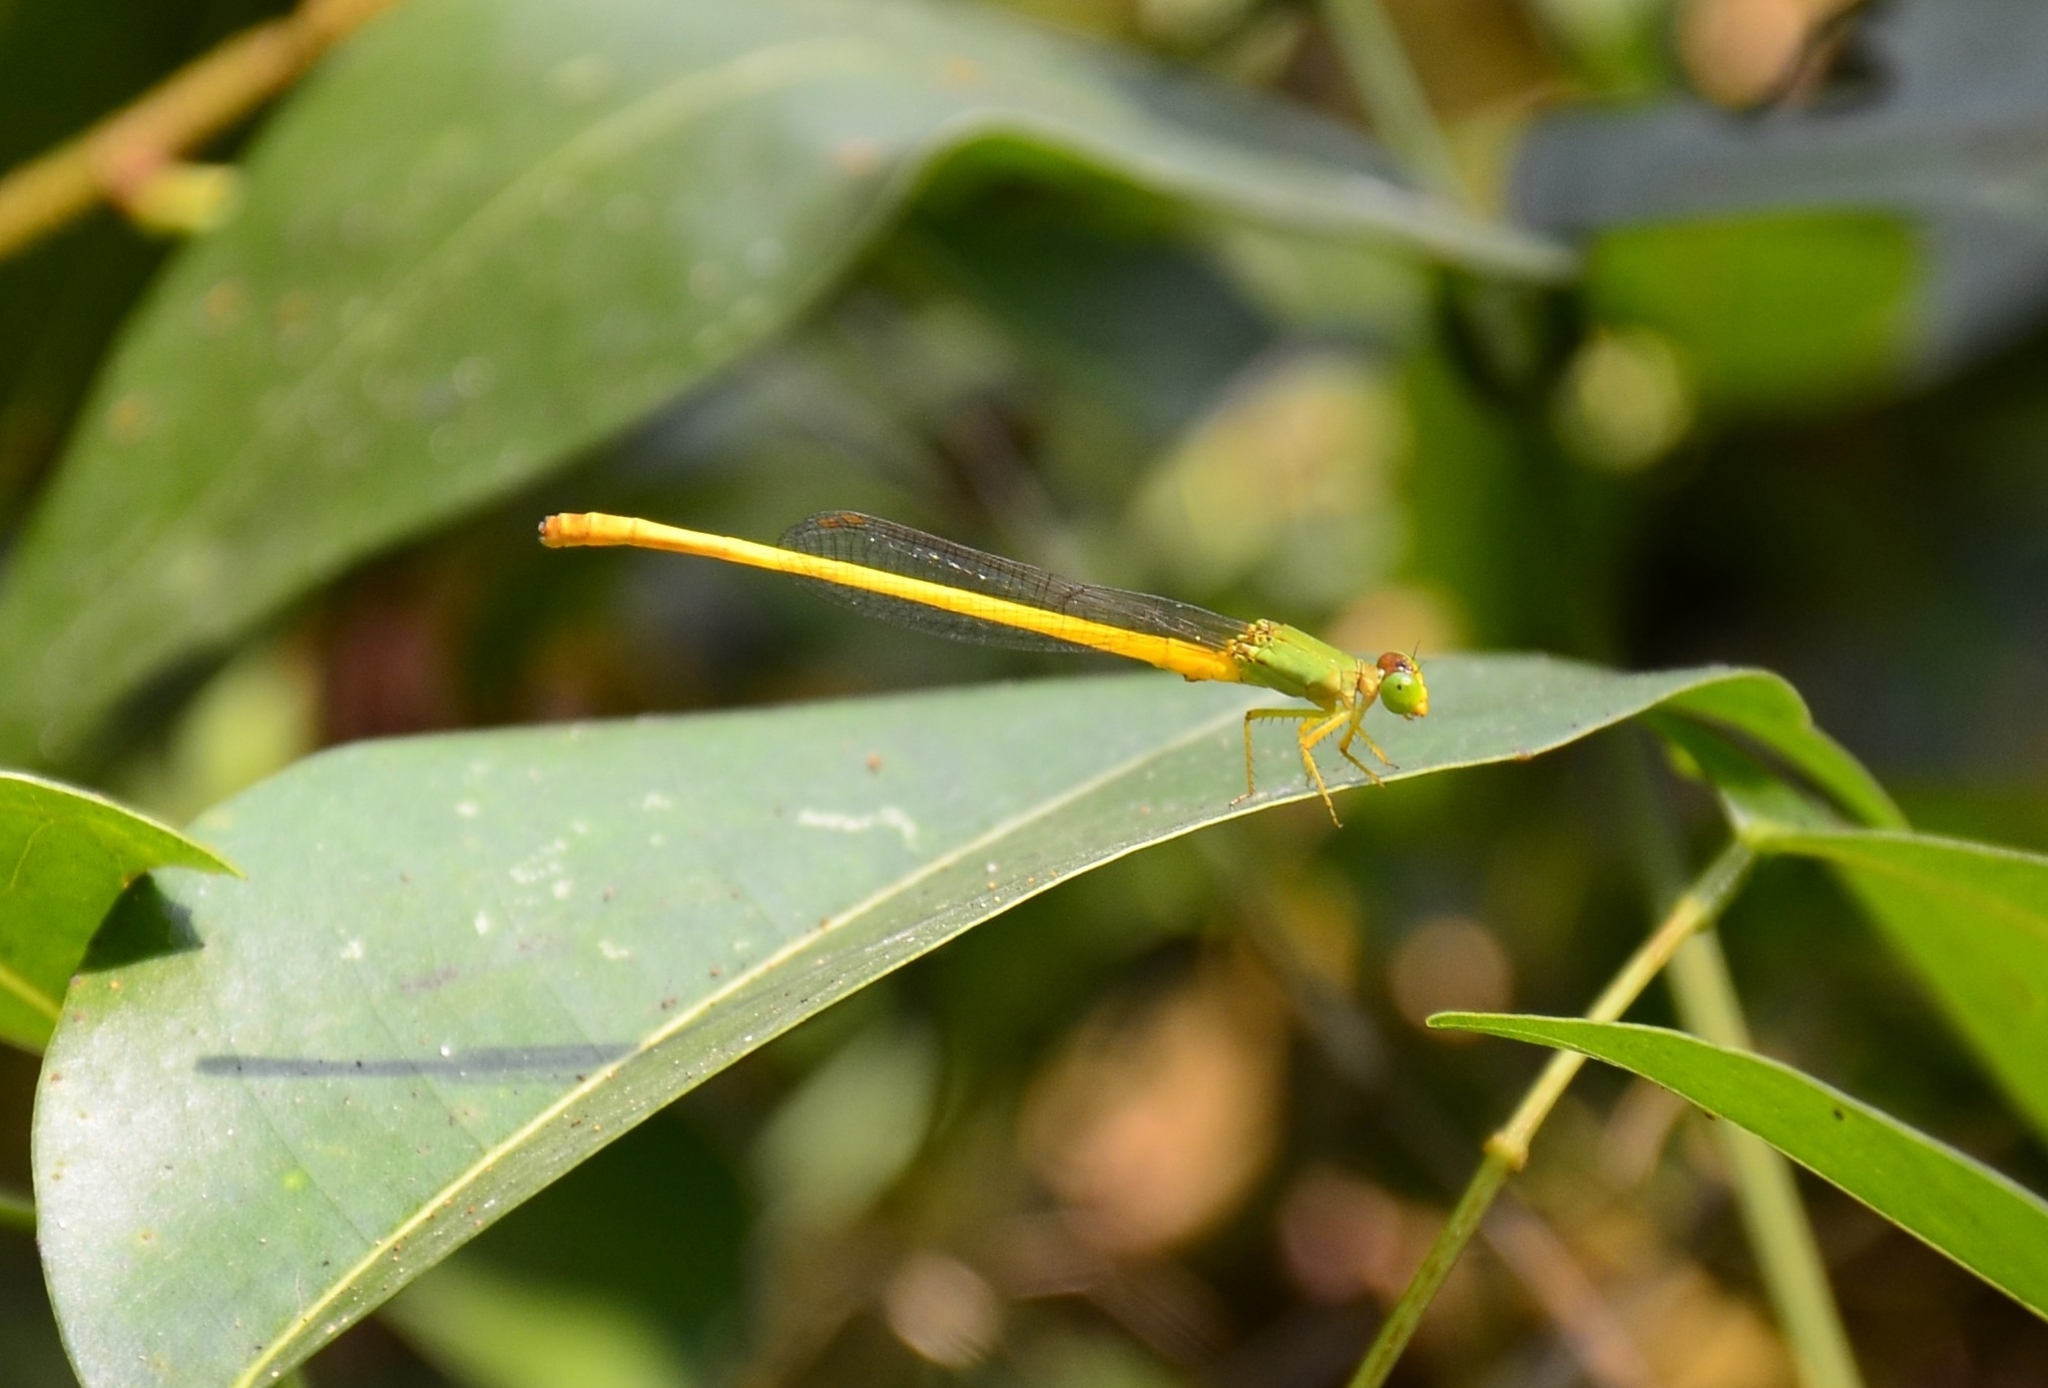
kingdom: Animalia
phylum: Arthropoda
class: Insecta
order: Odonata
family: Coenagrionidae
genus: Ceriagrion
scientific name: Ceriagrion coromandelianum
